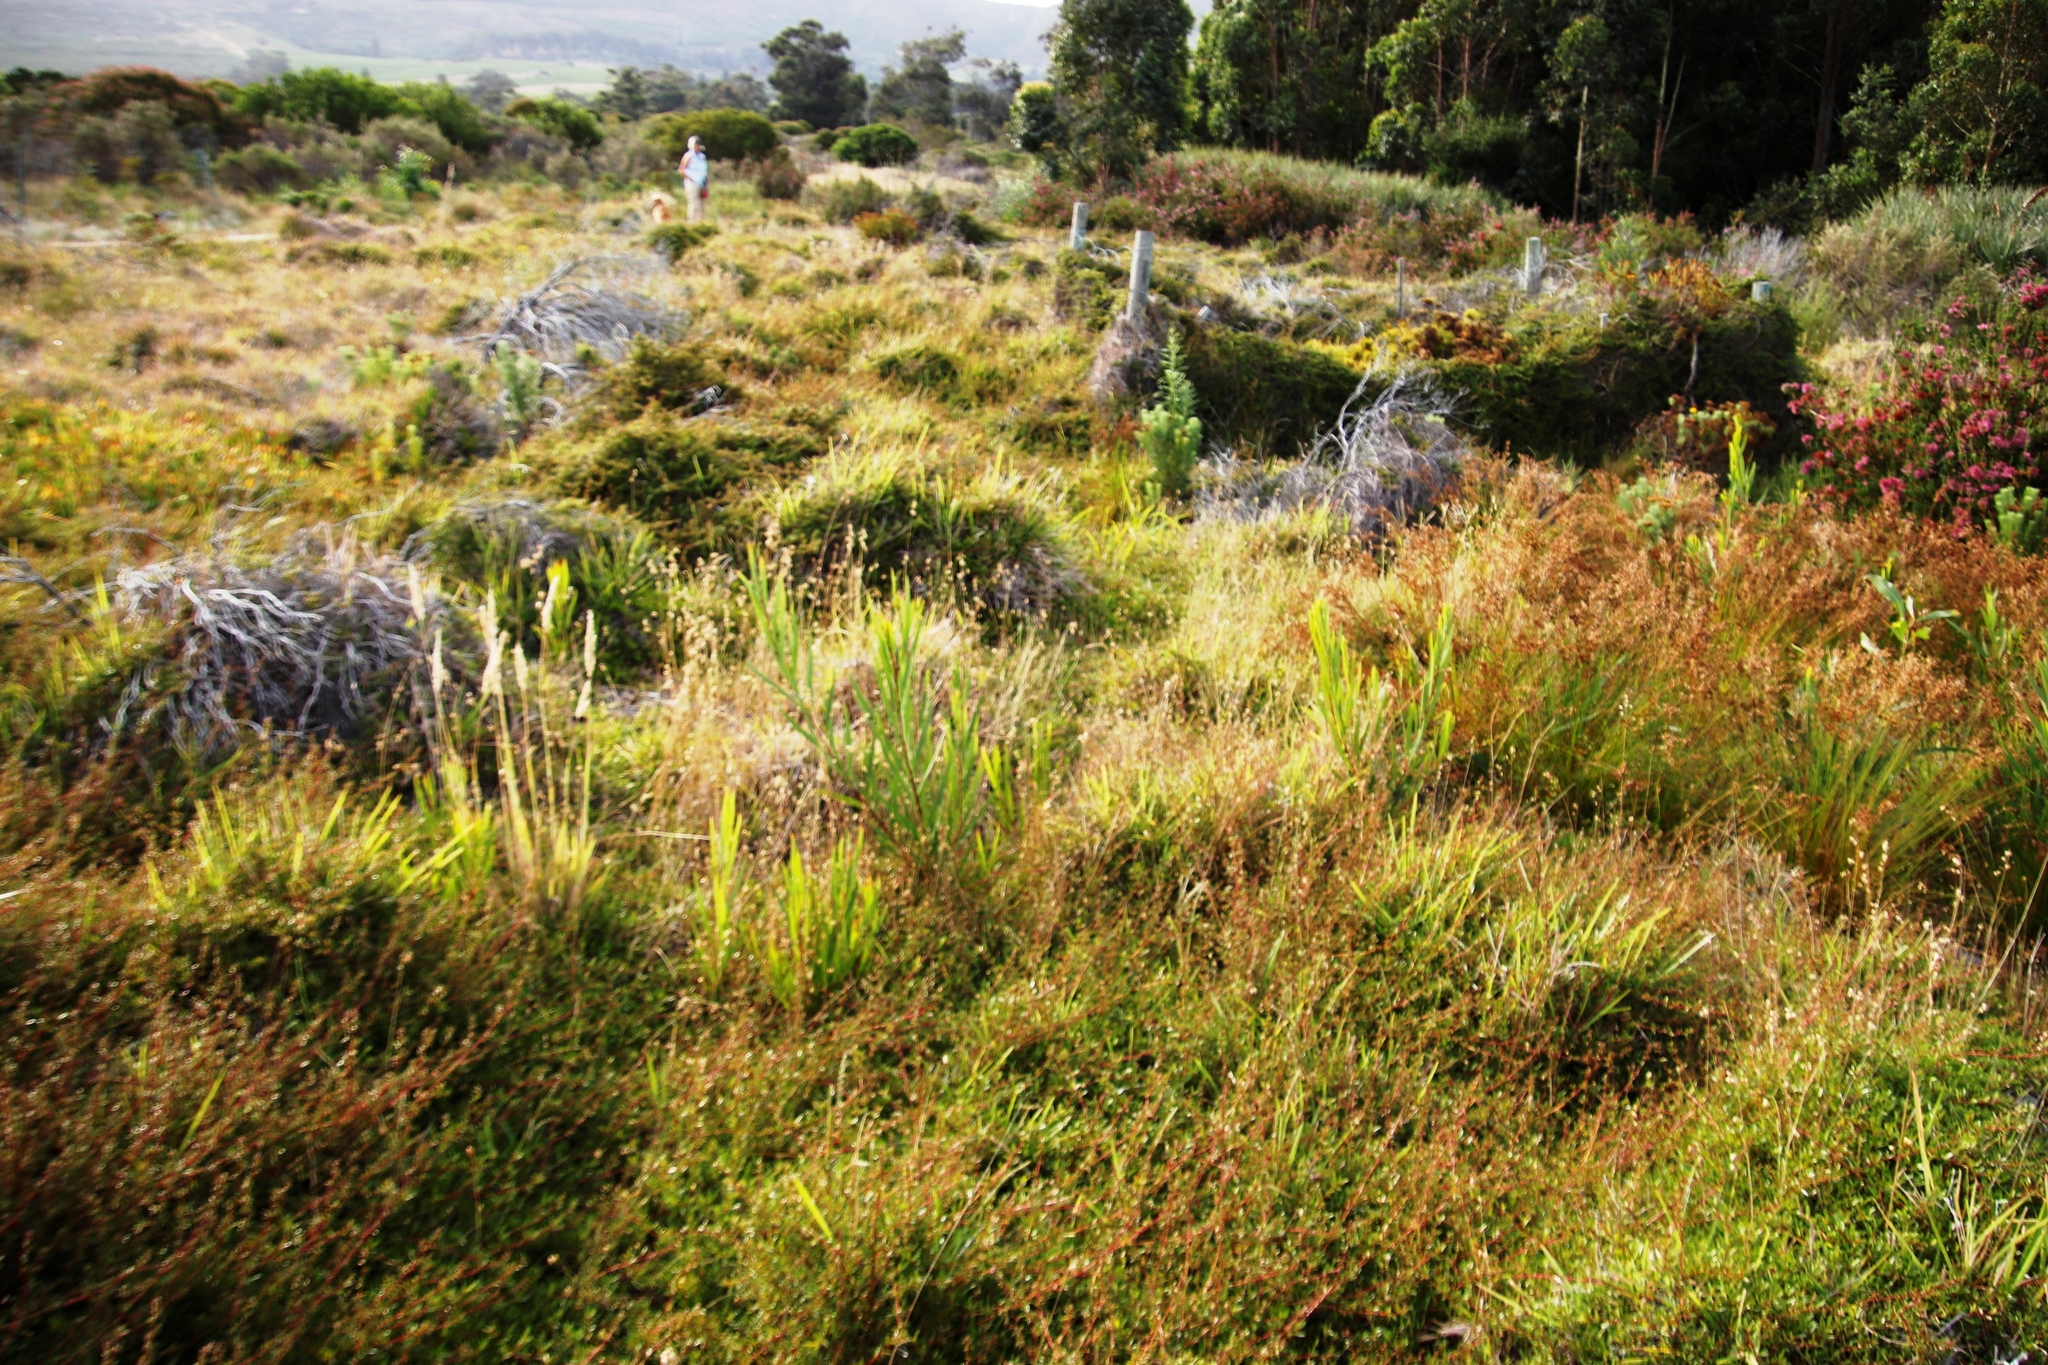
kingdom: Plantae
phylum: Tracheophyta
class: Magnoliopsida
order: Fabales
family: Fabaceae
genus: Acacia
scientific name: Acacia longifolia
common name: Sydney golden wattle
